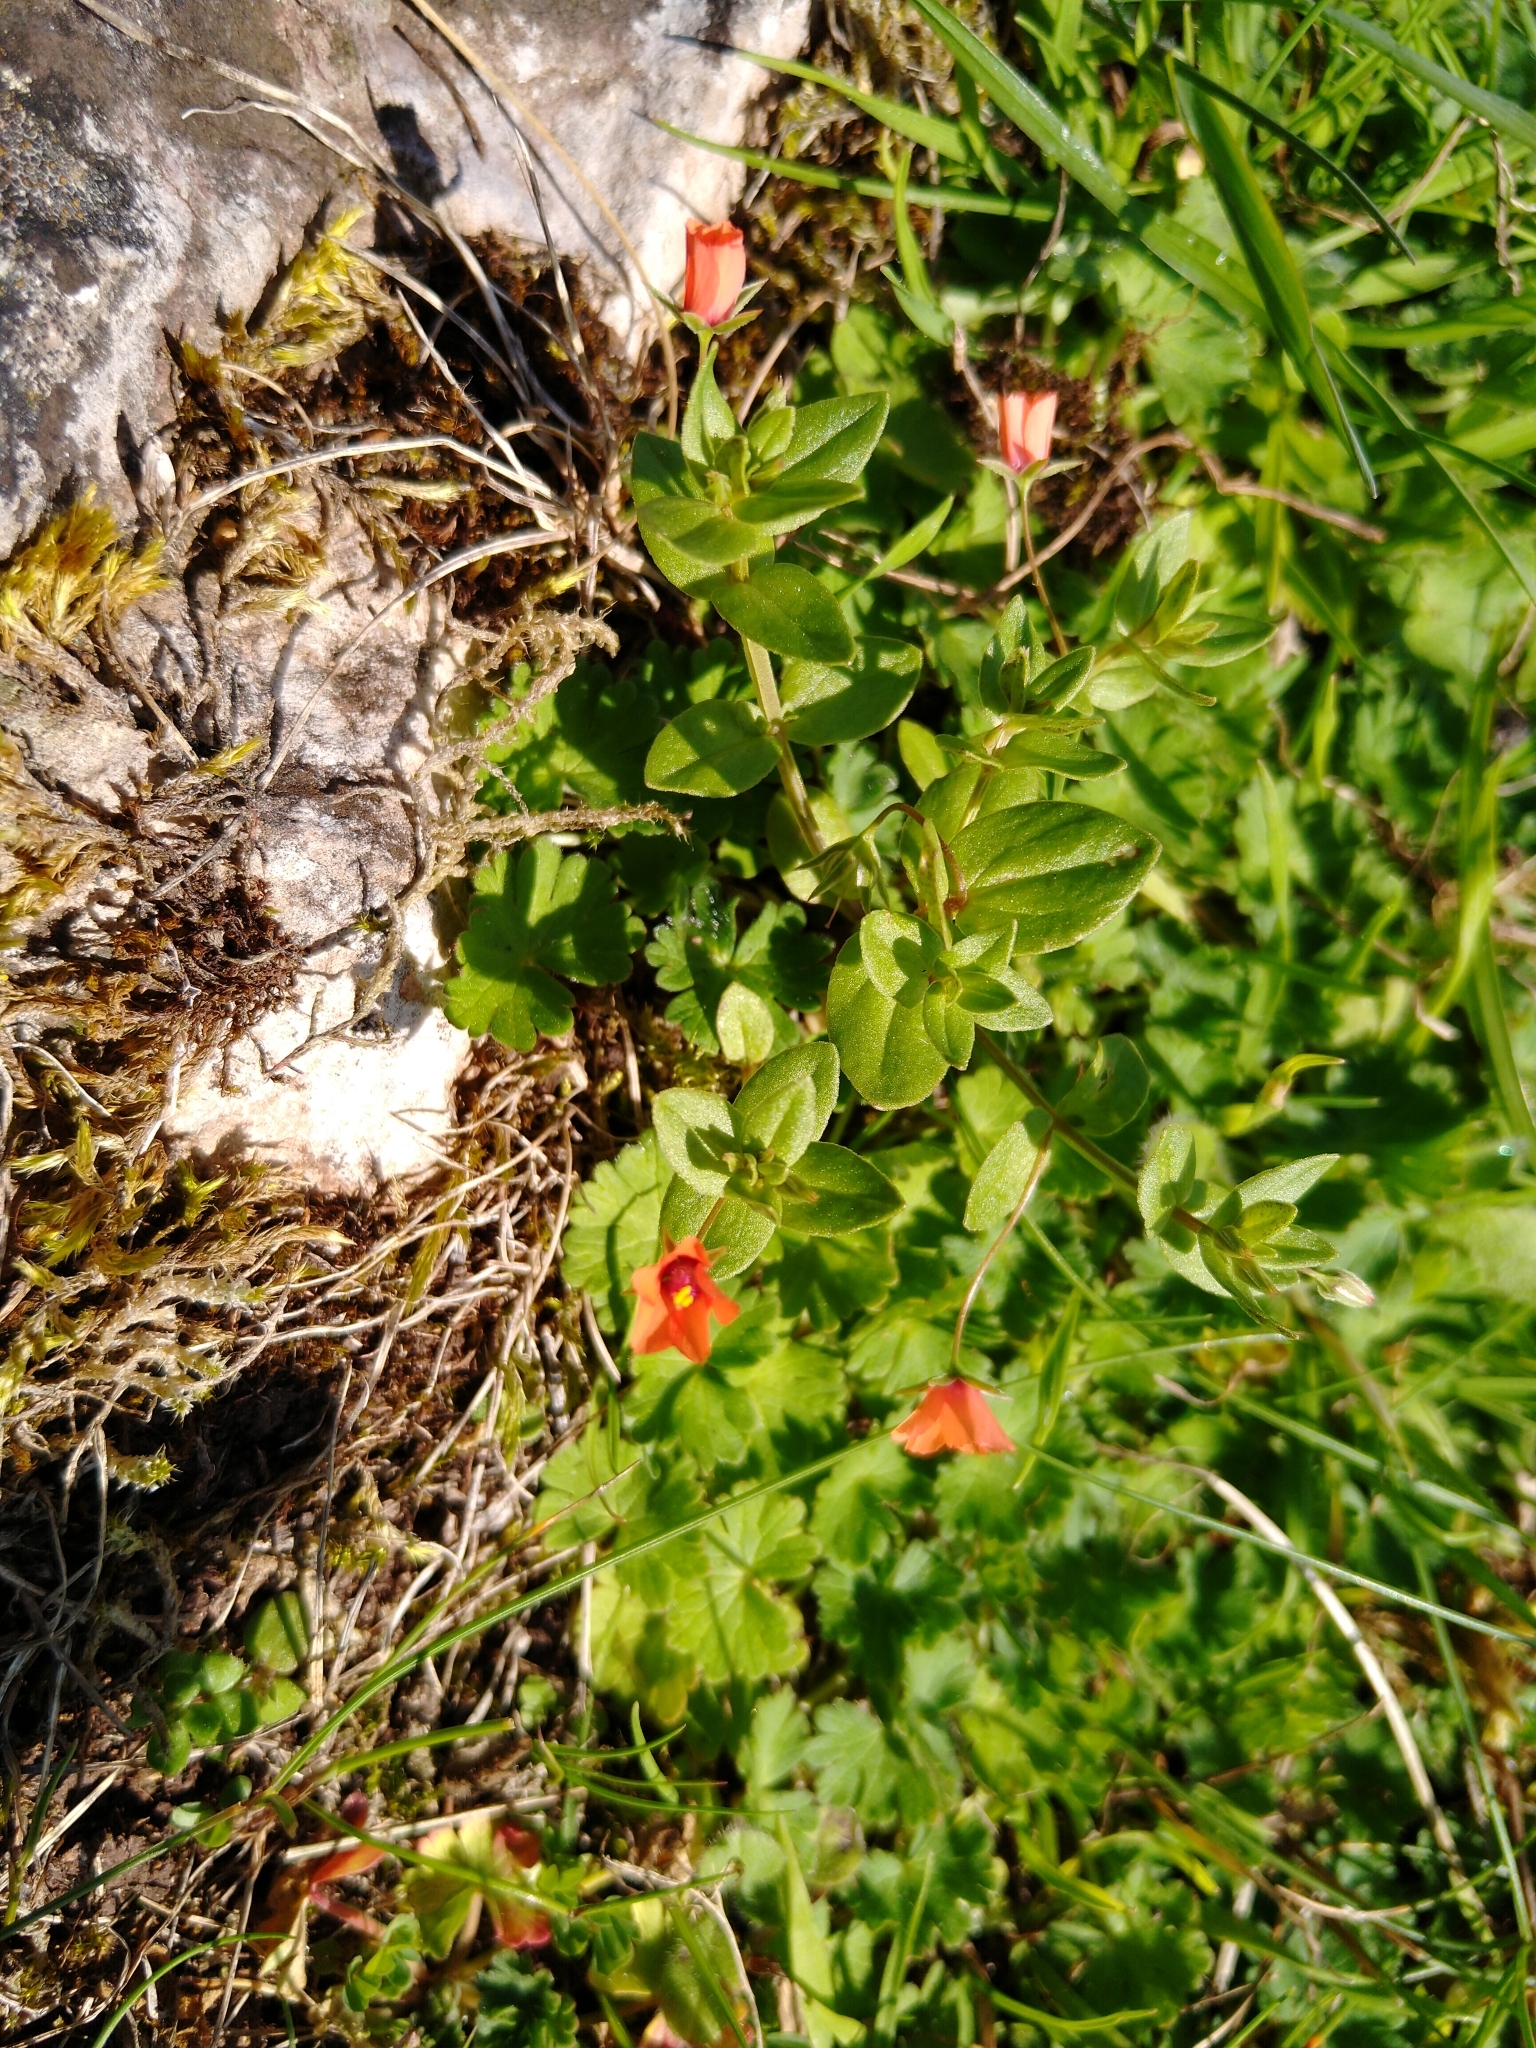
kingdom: Plantae
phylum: Tracheophyta
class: Magnoliopsida
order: Ericales
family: Primulaceae
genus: Lysimachia
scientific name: Lysimachia arvensis
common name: Scarlet pimpernel
